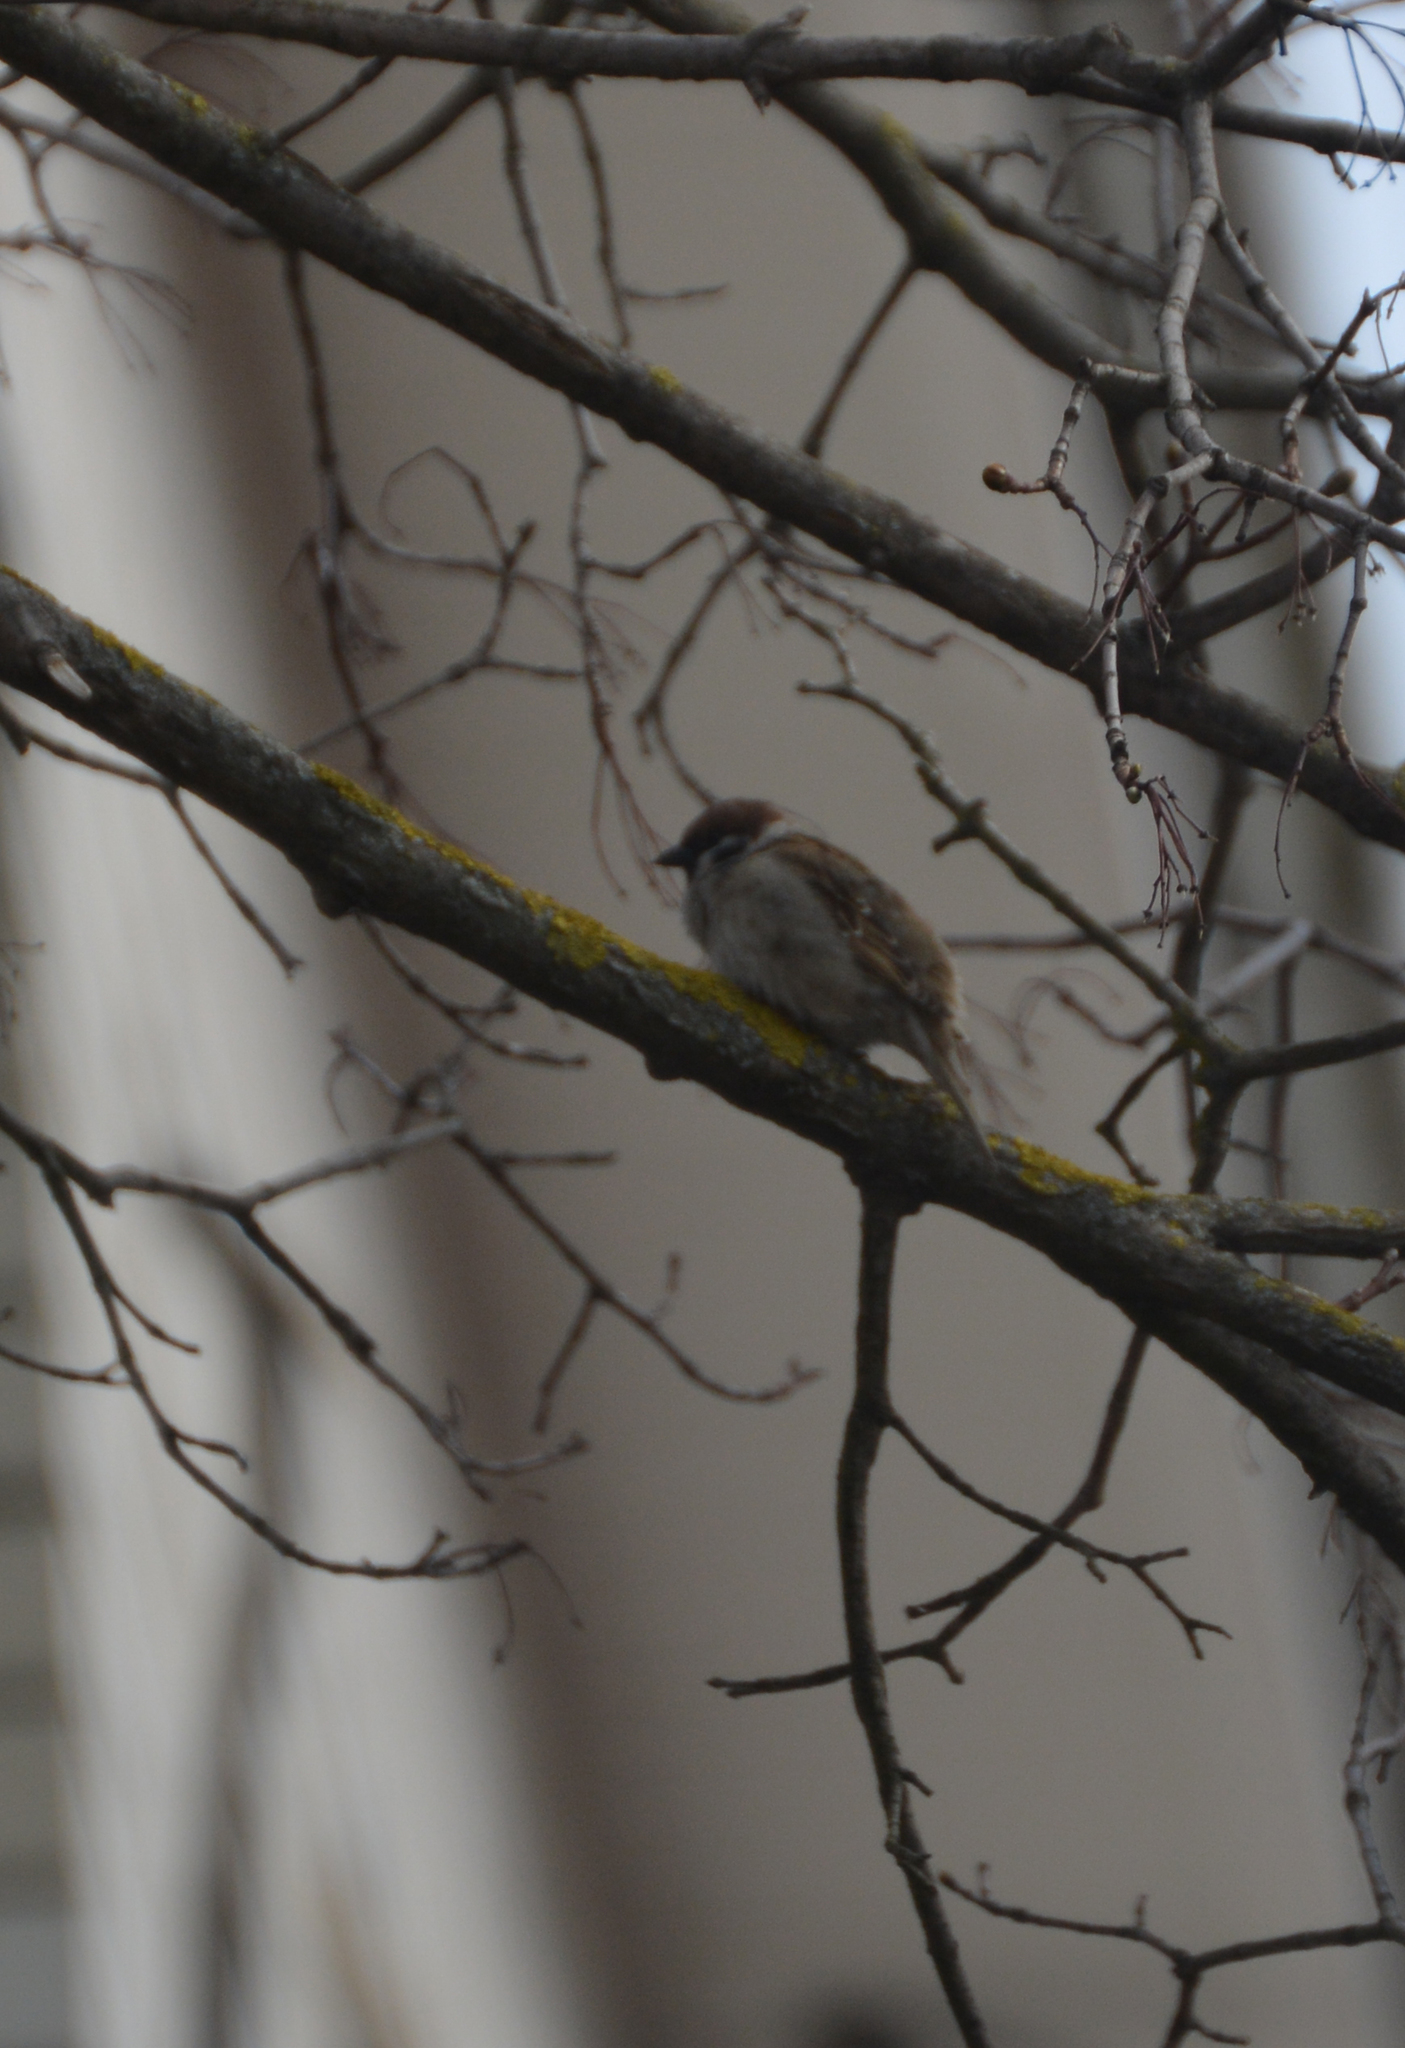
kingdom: Animalia
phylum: Chordata
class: Aves
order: Passeriformes
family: Passeridae
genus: Passer
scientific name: Passer montanus
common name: Eurasian tree sparrow
